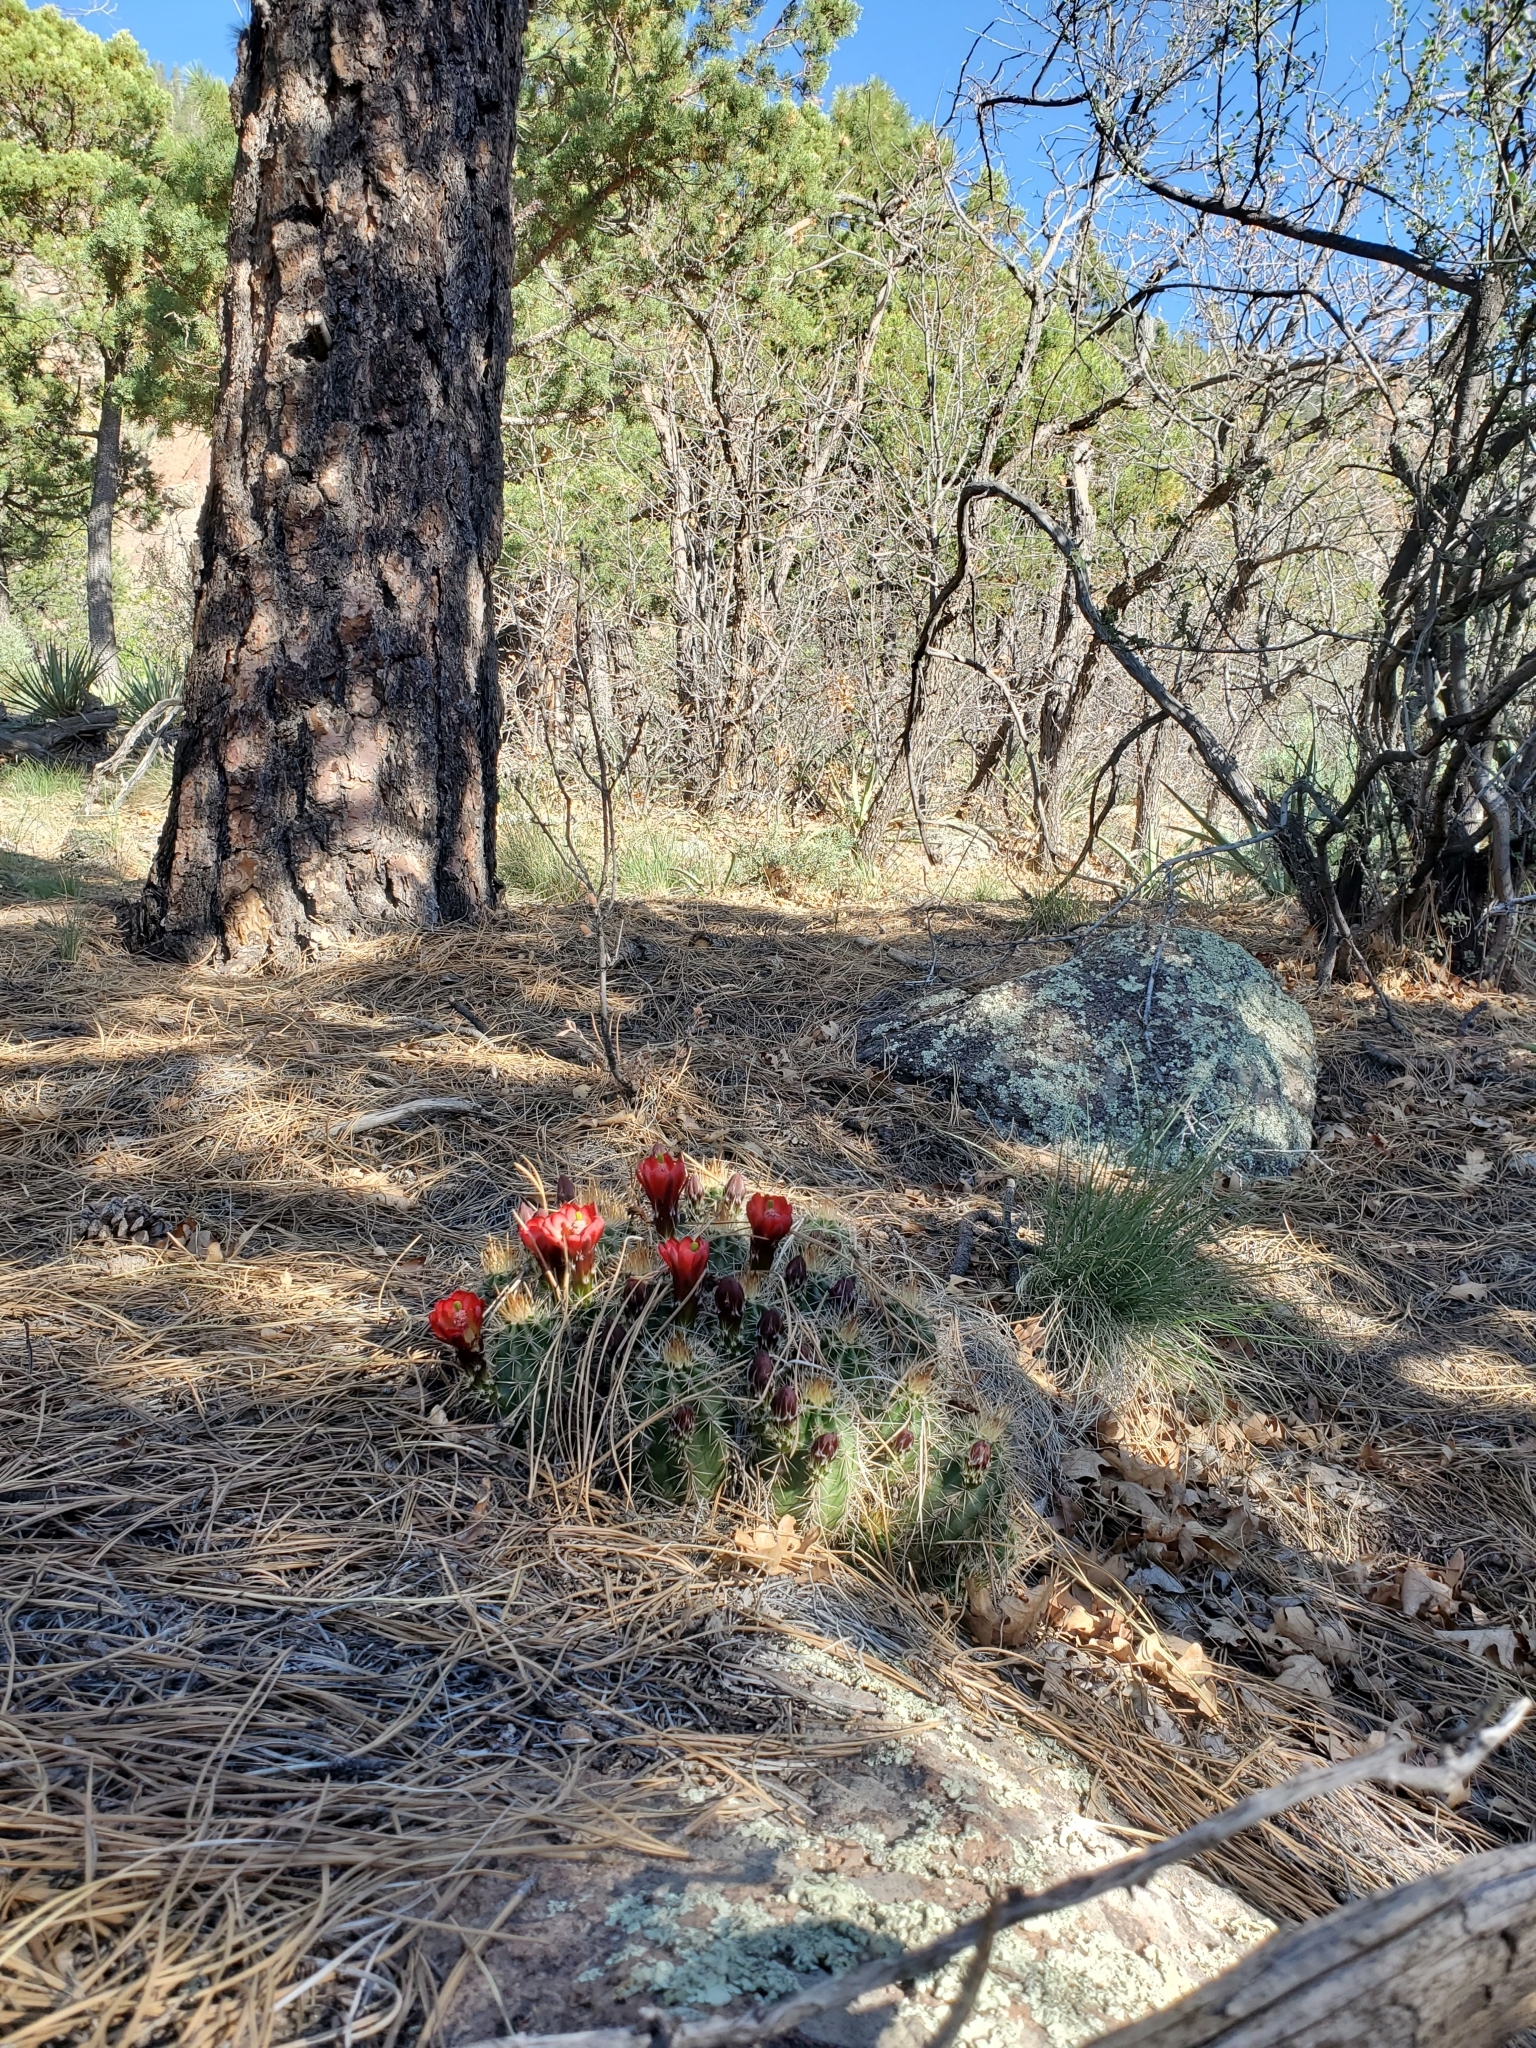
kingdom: Plantae
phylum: Tracheophyta
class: Magnoliopsida
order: Caryophyllales
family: Cactaceae
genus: Echinocereus
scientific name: Echinocereus bakeri
